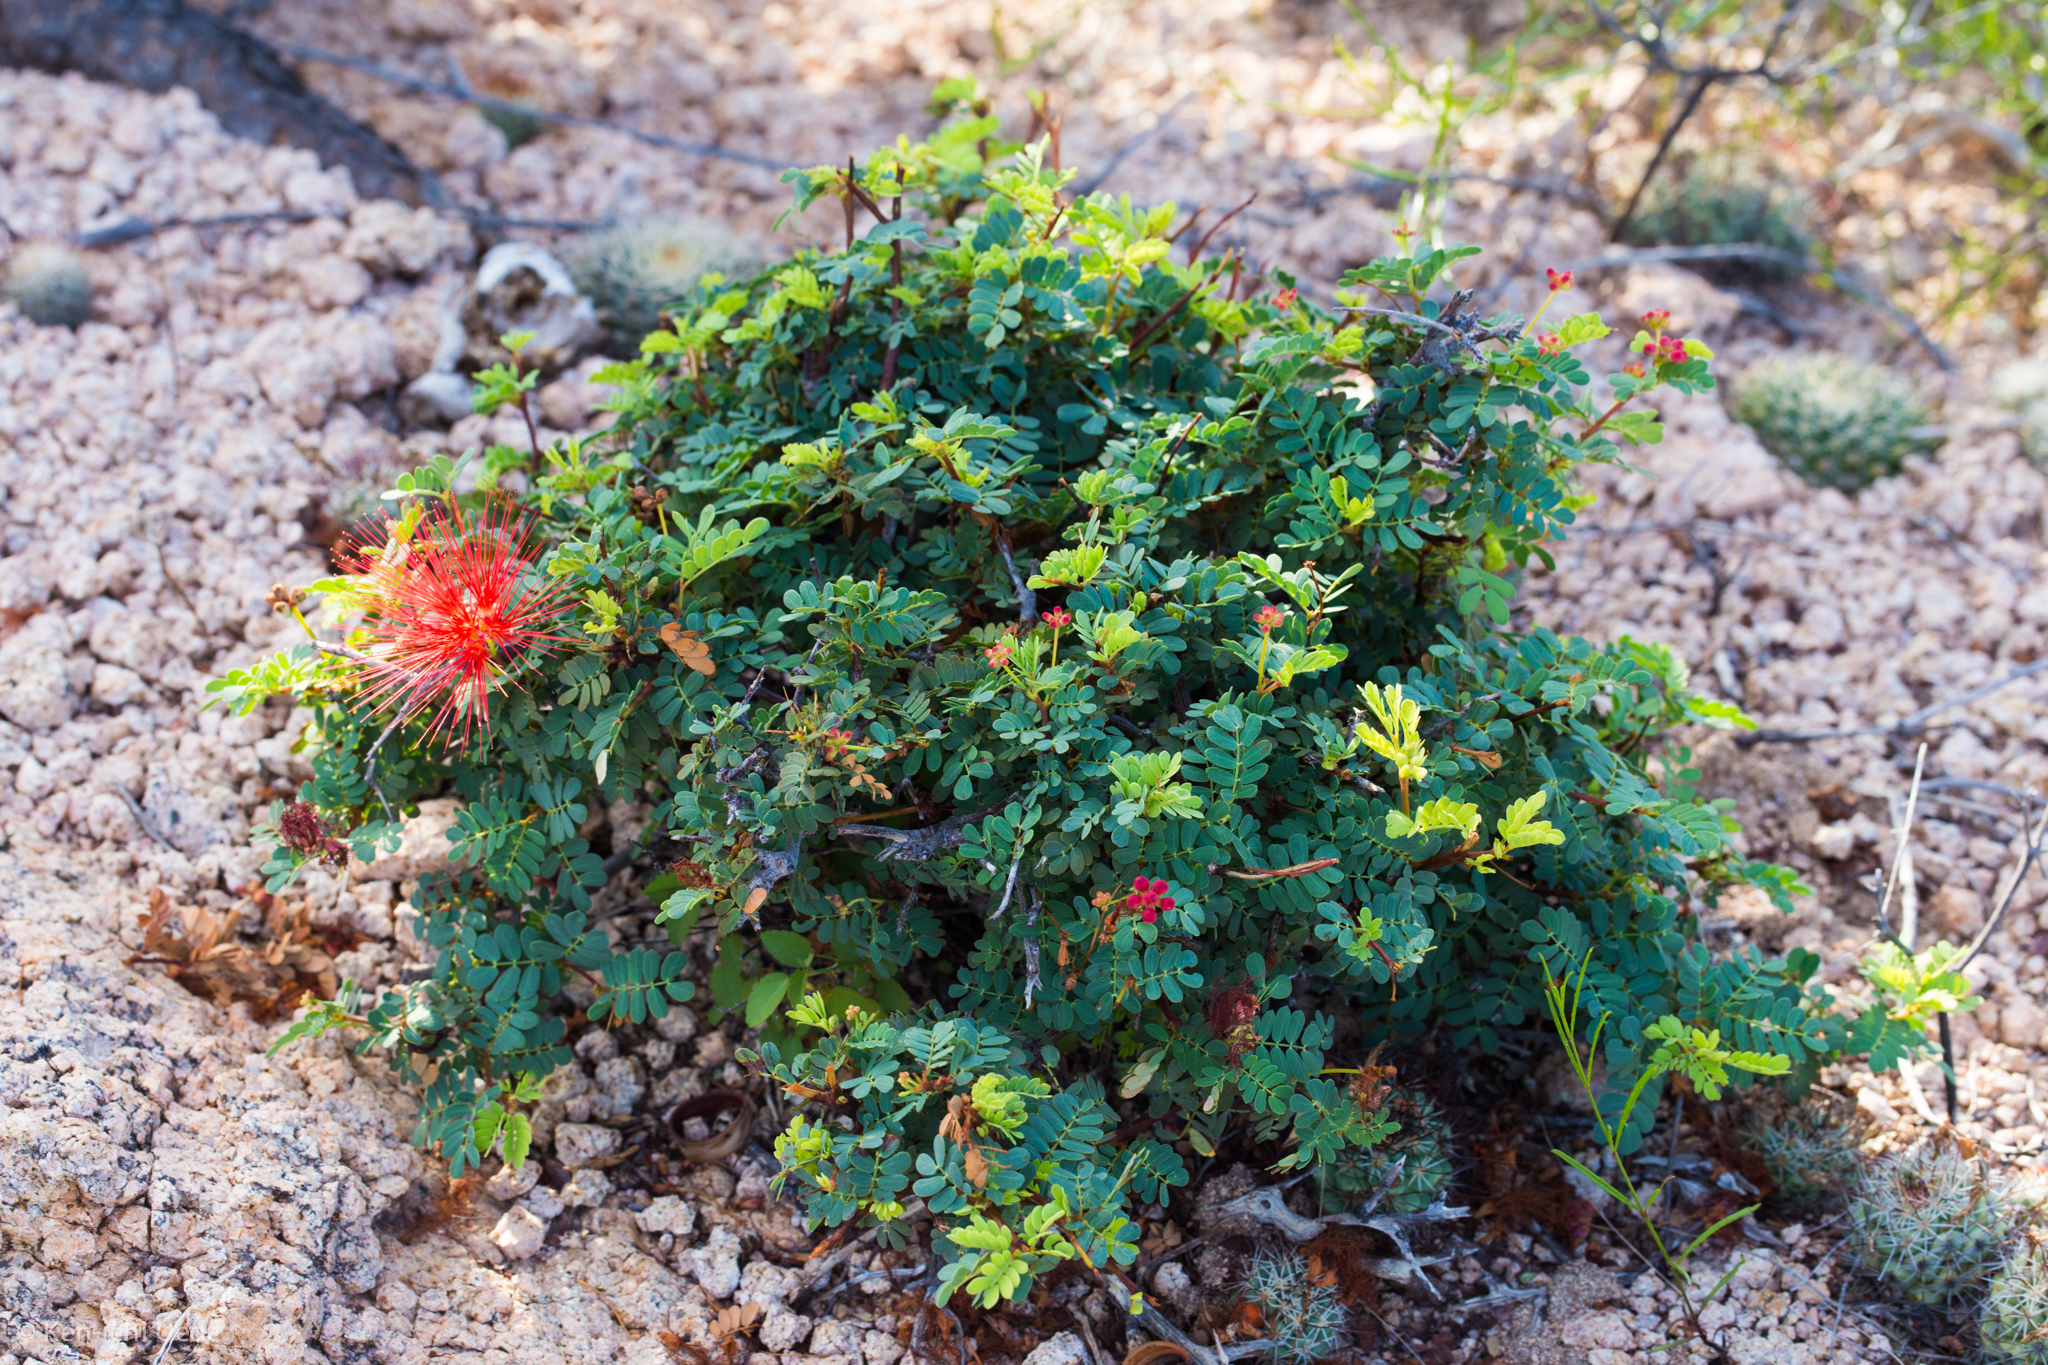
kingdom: Plantae
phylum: Tracheophyta
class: Magnoliopsida
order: Fabales
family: Fabaceae
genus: Calliandra
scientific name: Calliandra californica
